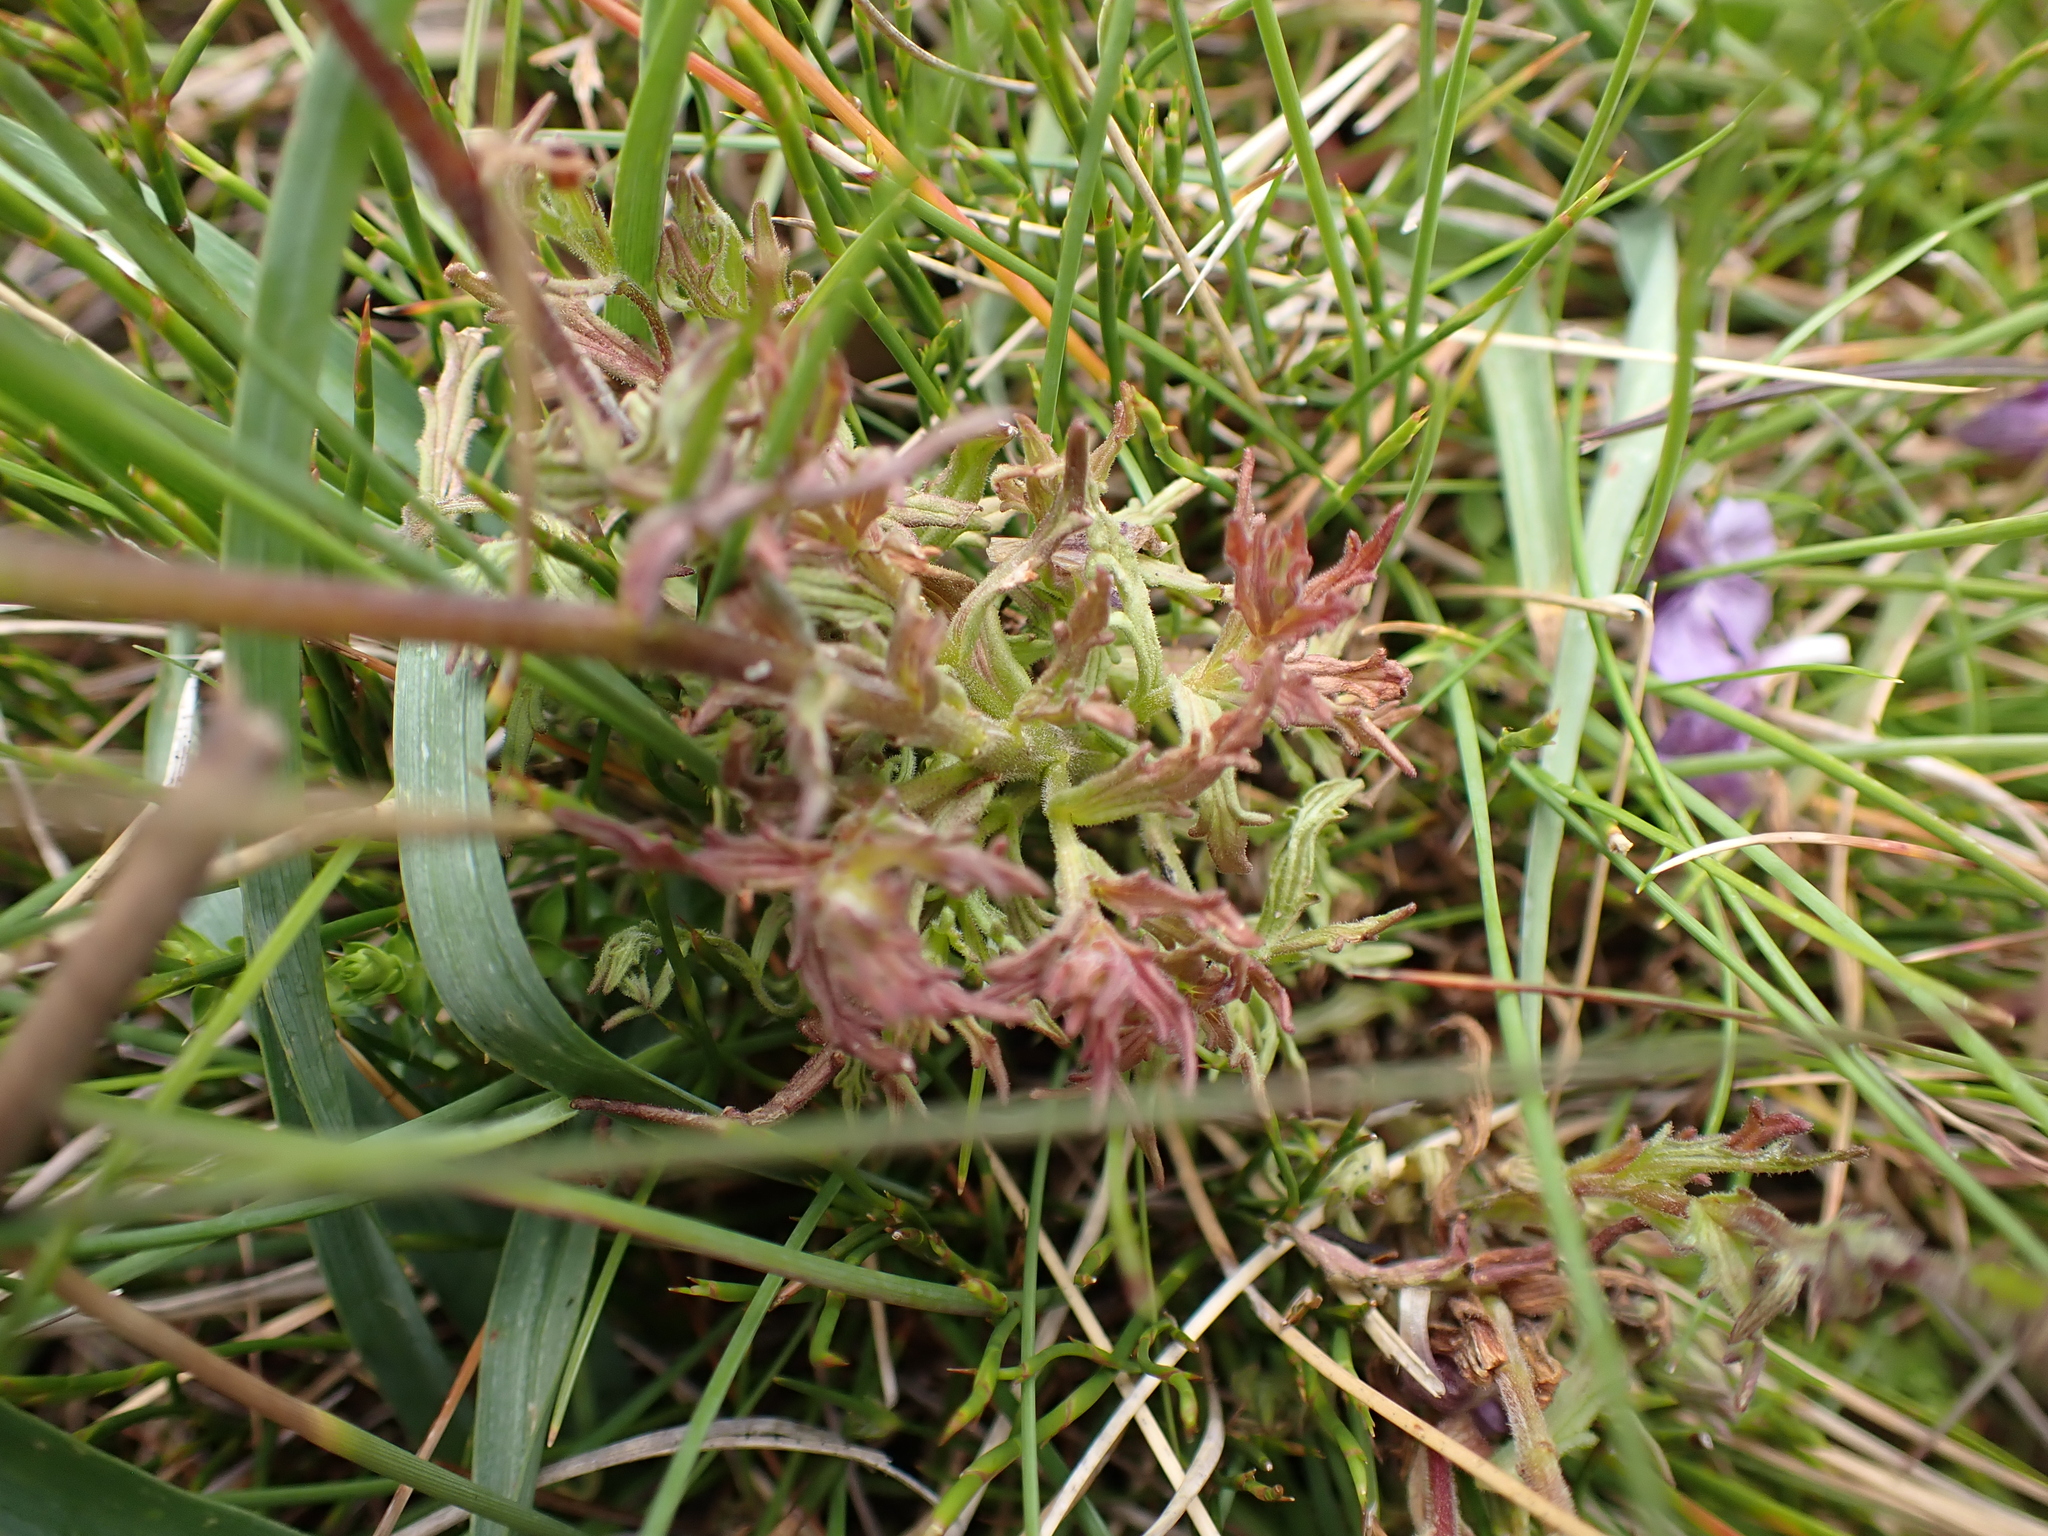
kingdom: Plantae
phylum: Tracheophyta
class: Magnoliopsida
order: Lamiales
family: Orobanchaceae
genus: Euphrasia
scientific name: Euphrasia caudata
